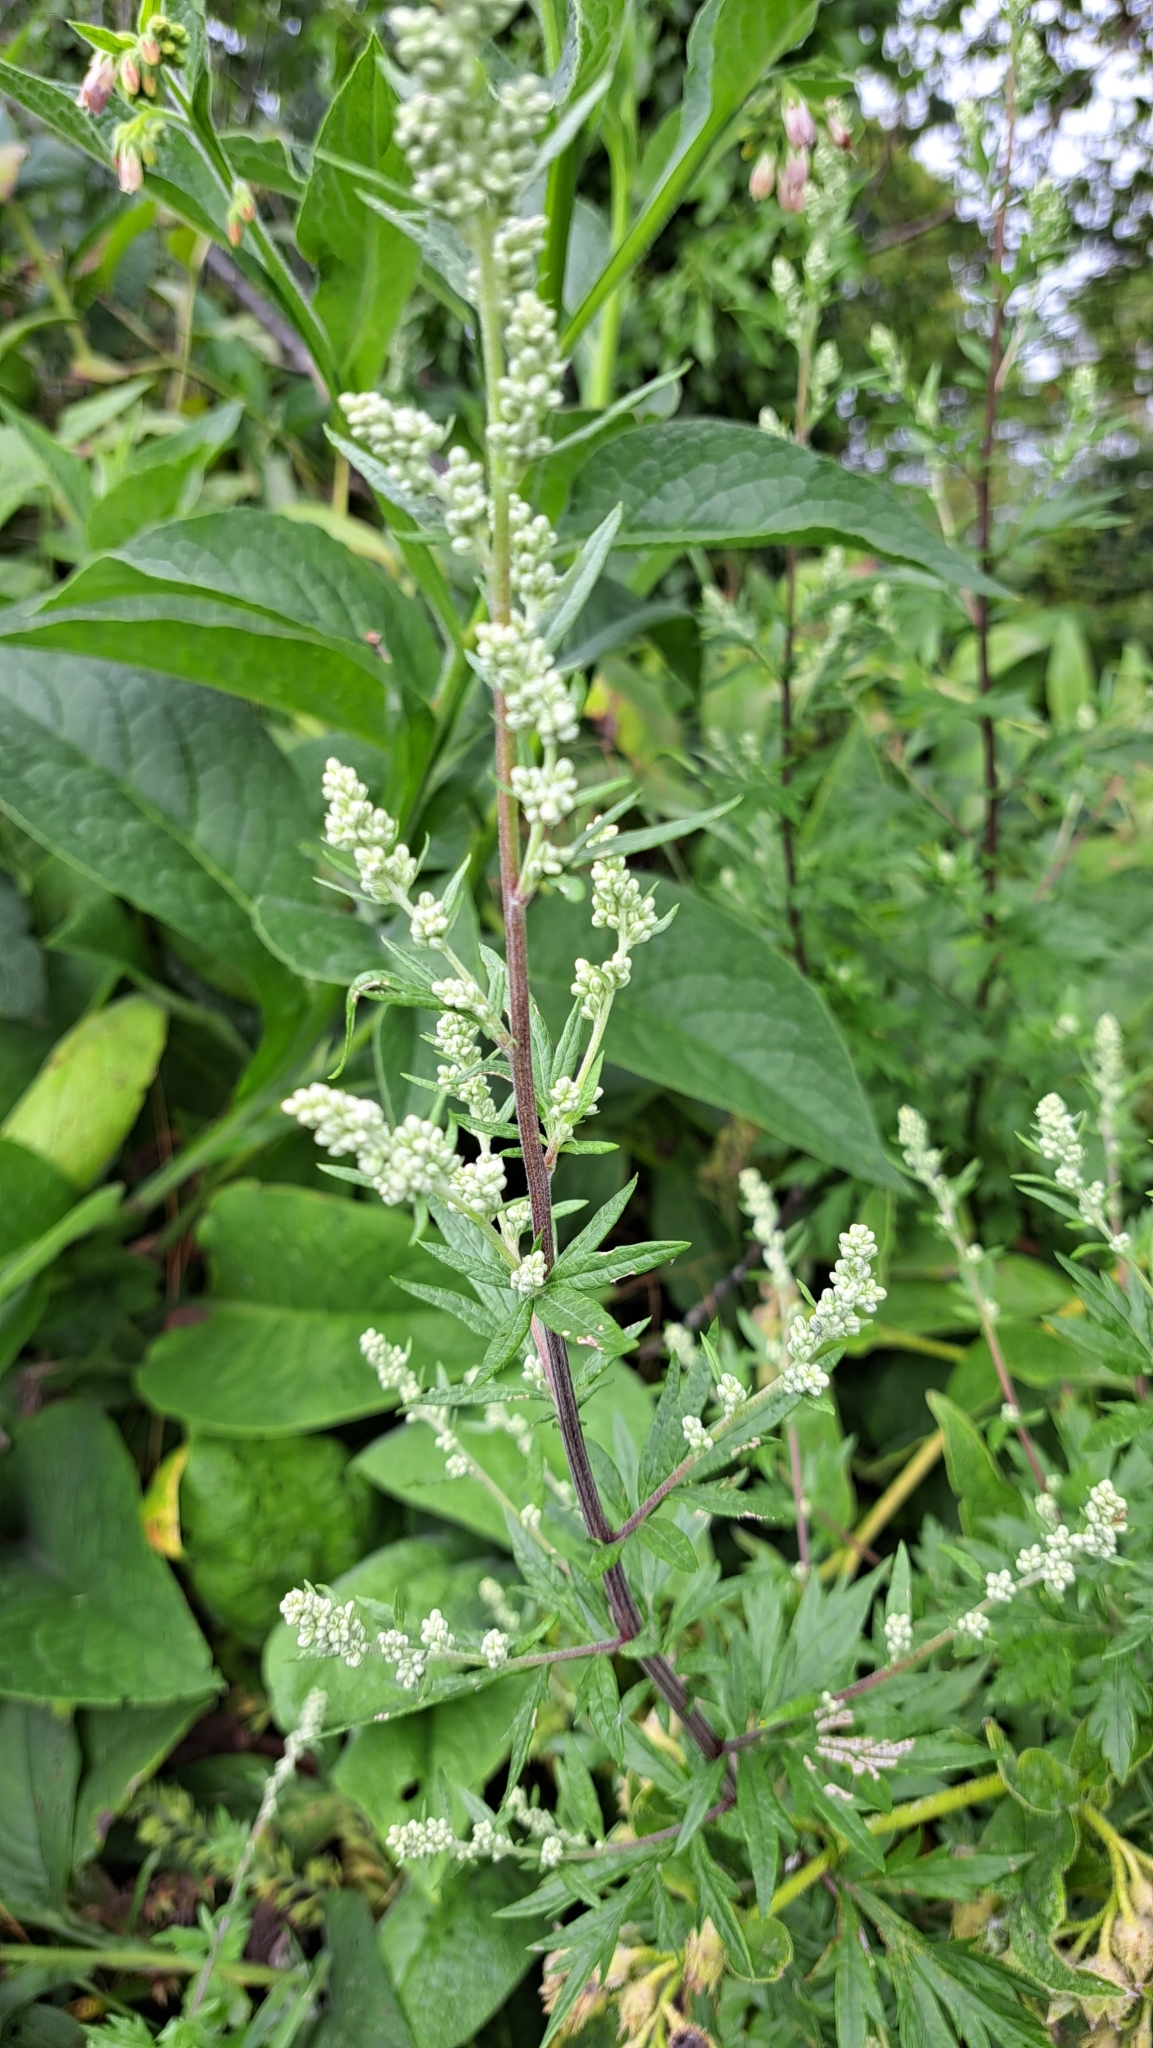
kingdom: Plantae
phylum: Tracheophyta
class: Magnoliopsida
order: Asterales
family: Asteraceae
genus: Artemisia
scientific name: Artemisia vulgaris
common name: Mugwort
